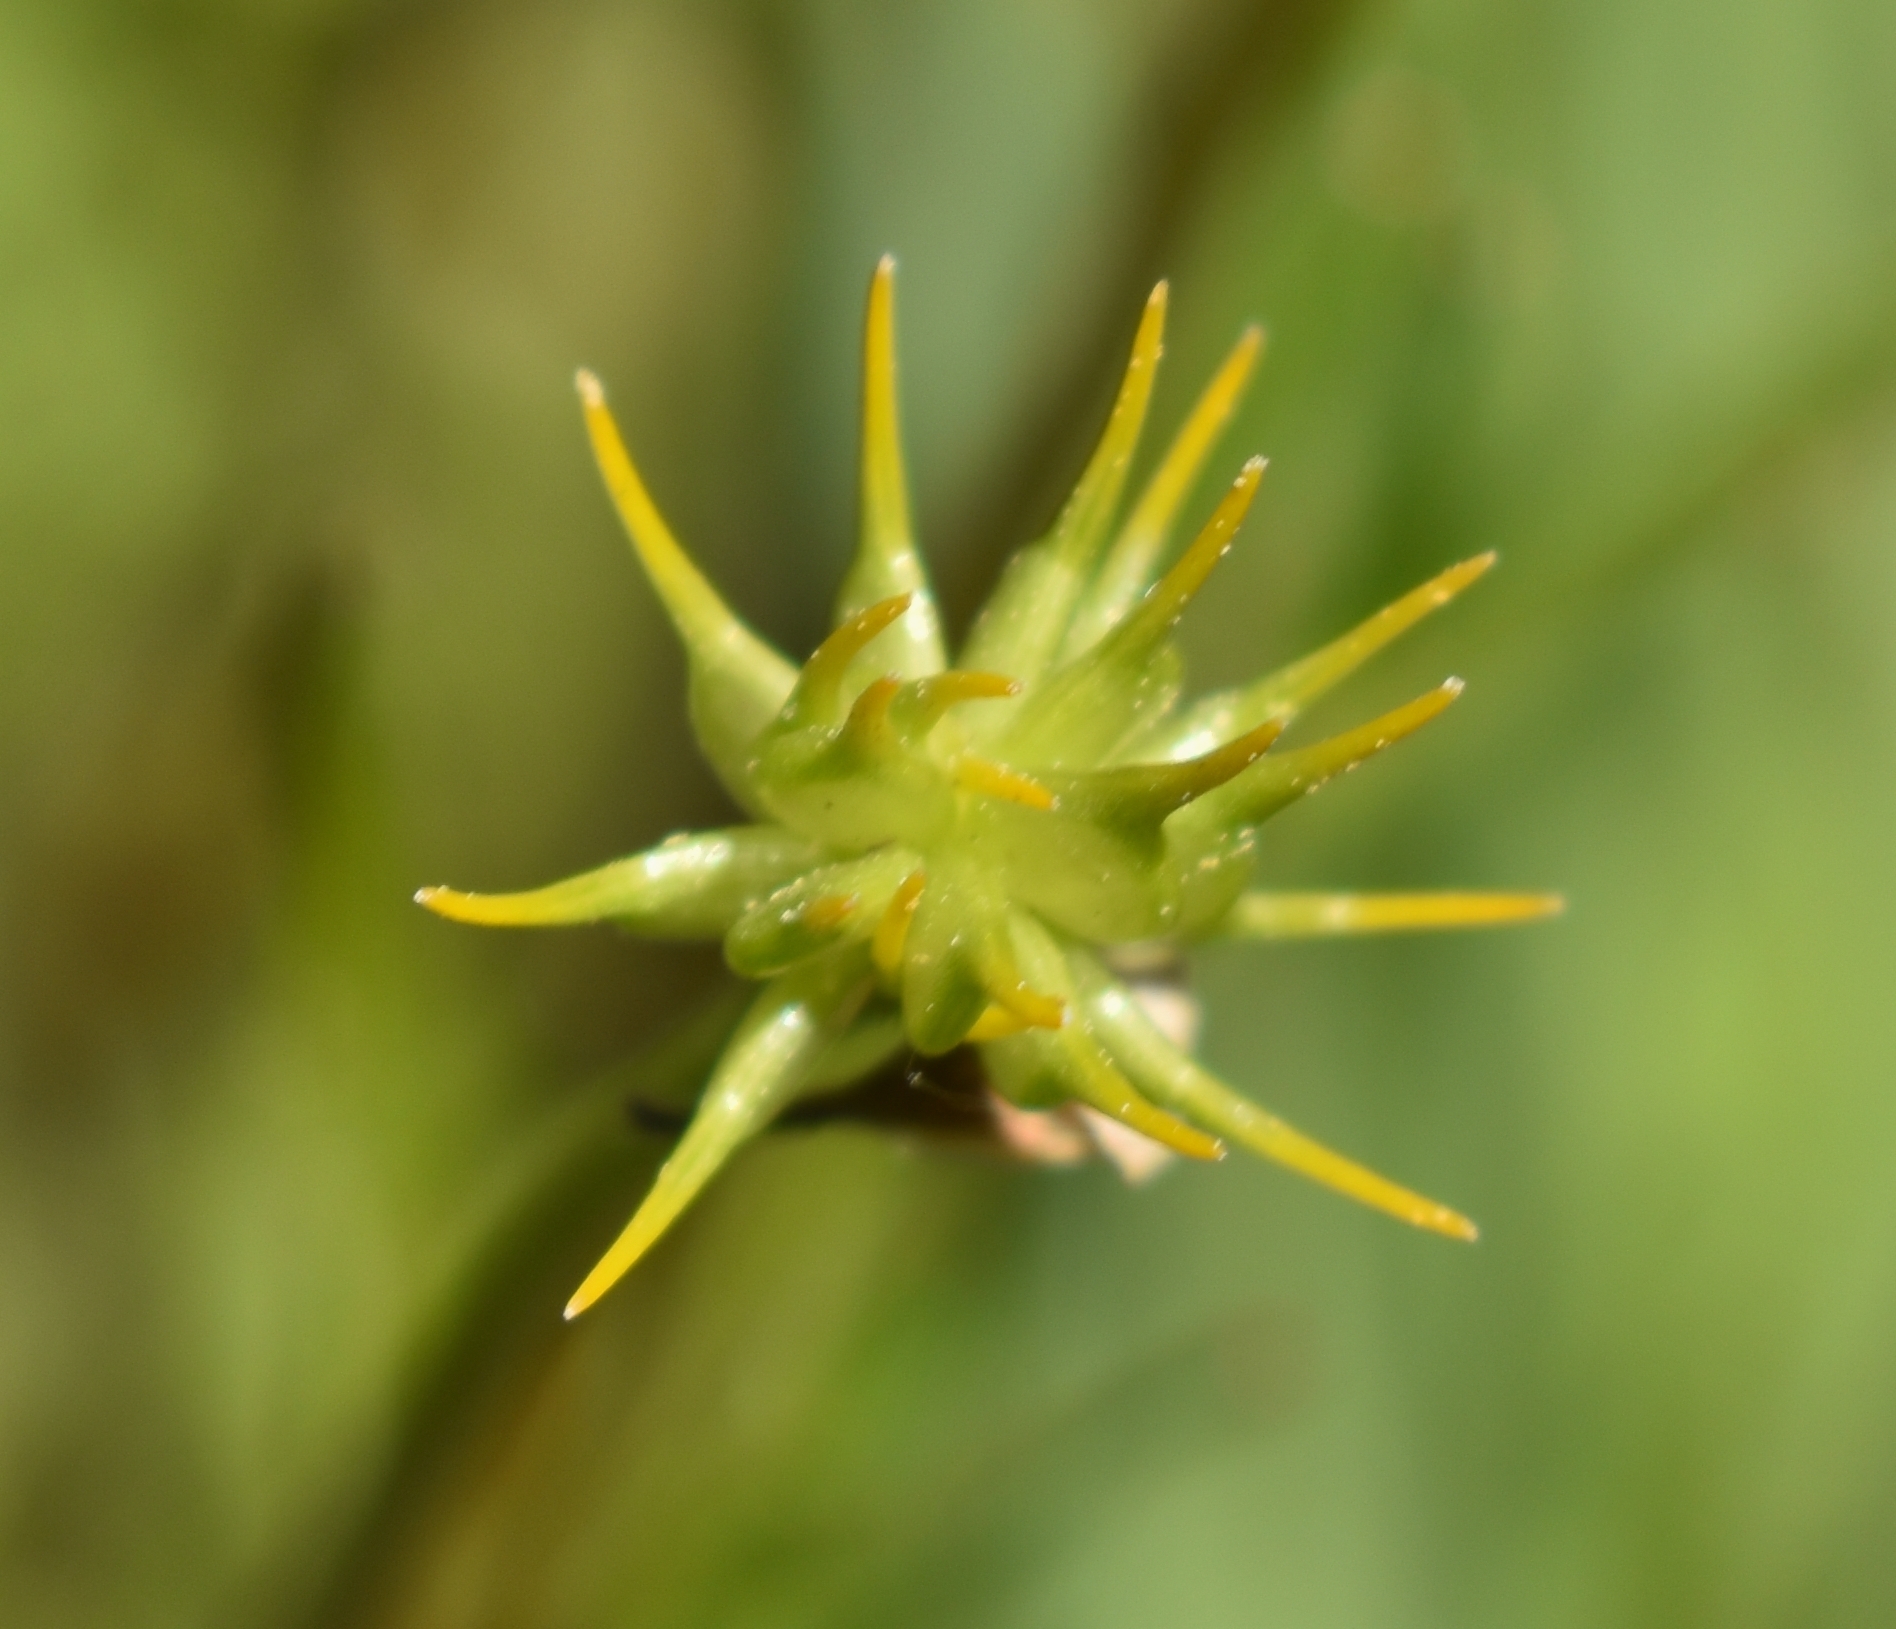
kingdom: Plantae
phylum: Tracheophyta
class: Magnoliopsida
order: Ranunculales
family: Ranunculaceae
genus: Ranunculus
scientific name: Ranunculus orthorhynchus
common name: Straight-beak buttercup
